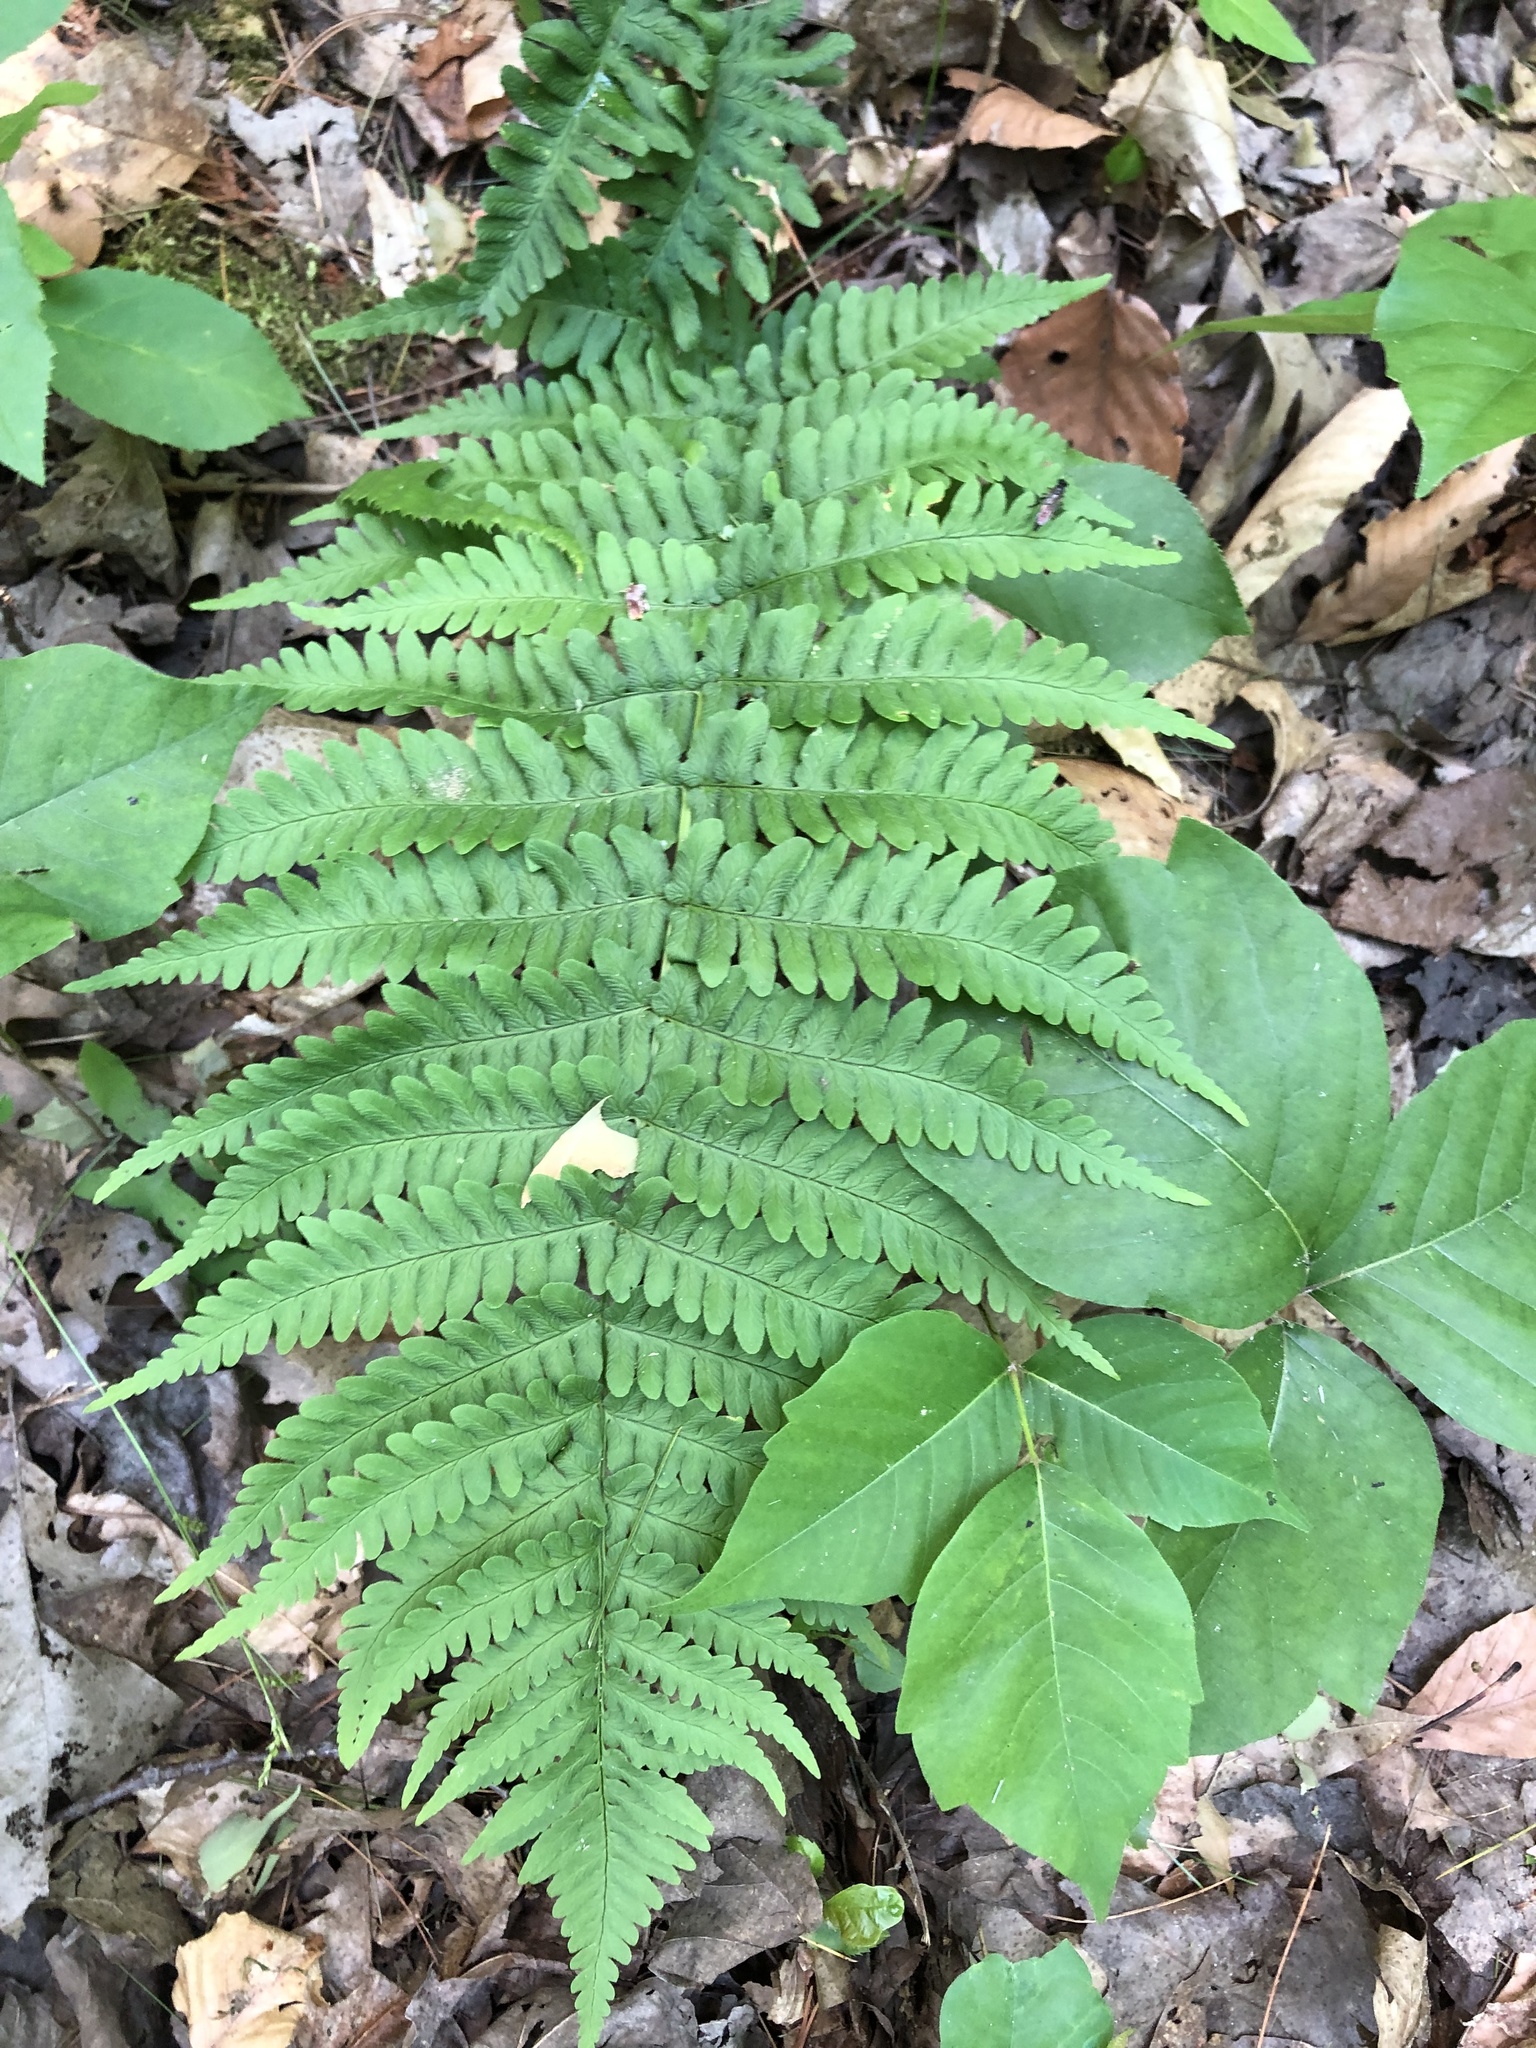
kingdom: Plantae
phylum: Tracheophyta
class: Polypodiopsida
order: Polypodiales
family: Dryopteridaceae
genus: Dryopteris
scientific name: Dryopteris marginalis
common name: Marginal wood fern
